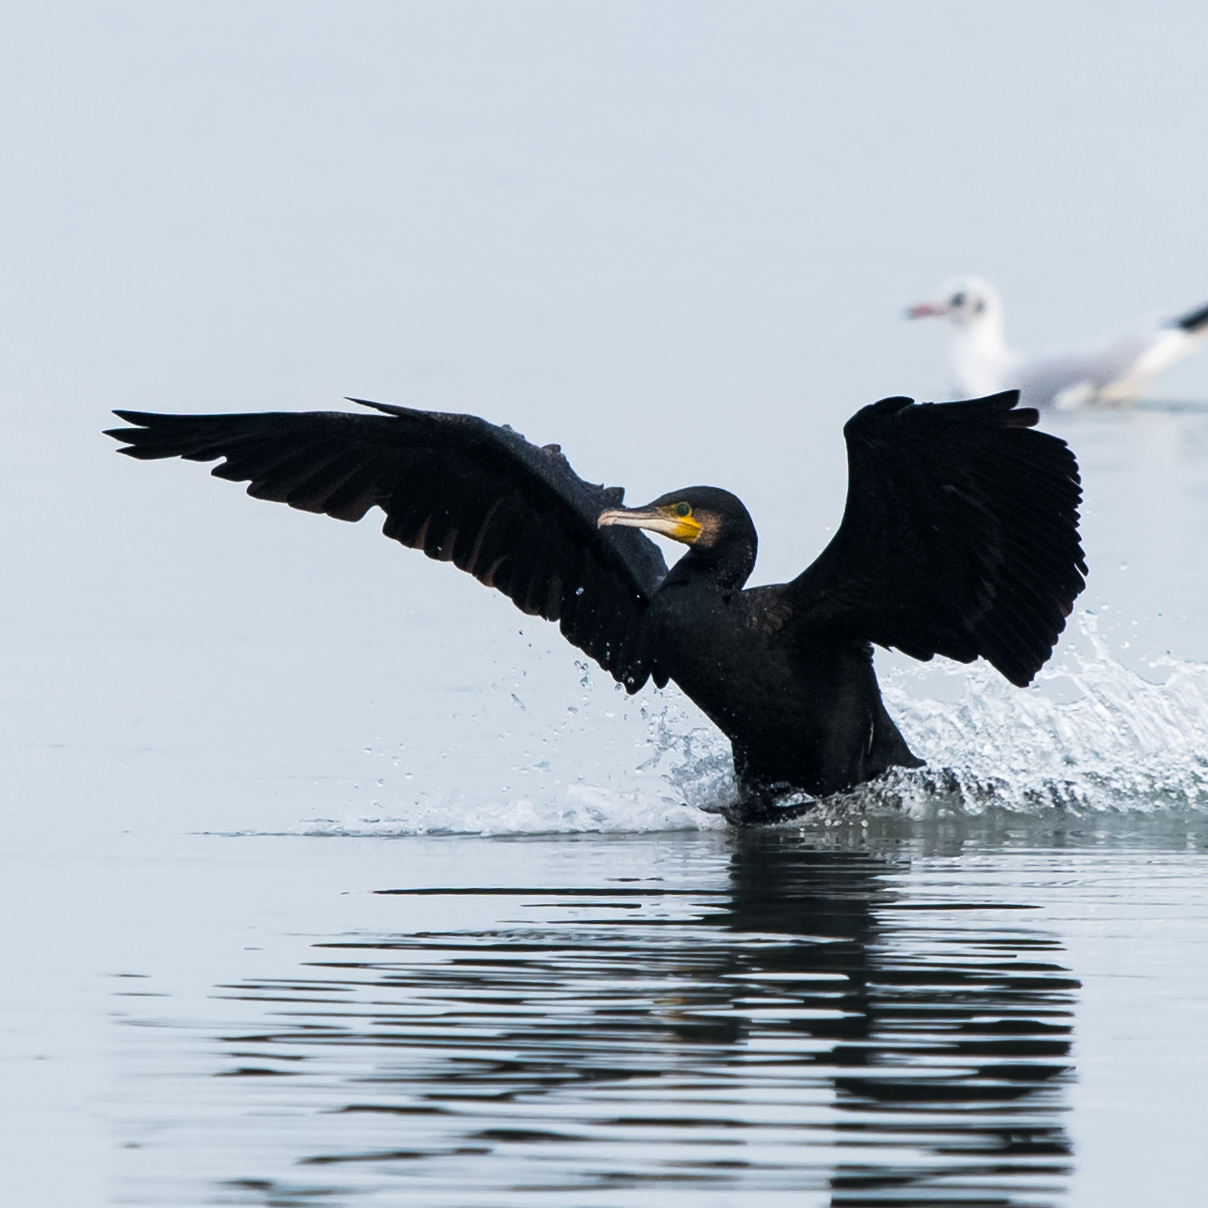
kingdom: Animalia
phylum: Chordata
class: Aves
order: Suliformes
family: Phalacrocoracidae
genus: Phalacrocorax
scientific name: Phalacrocorax carbo
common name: Great cormorant
